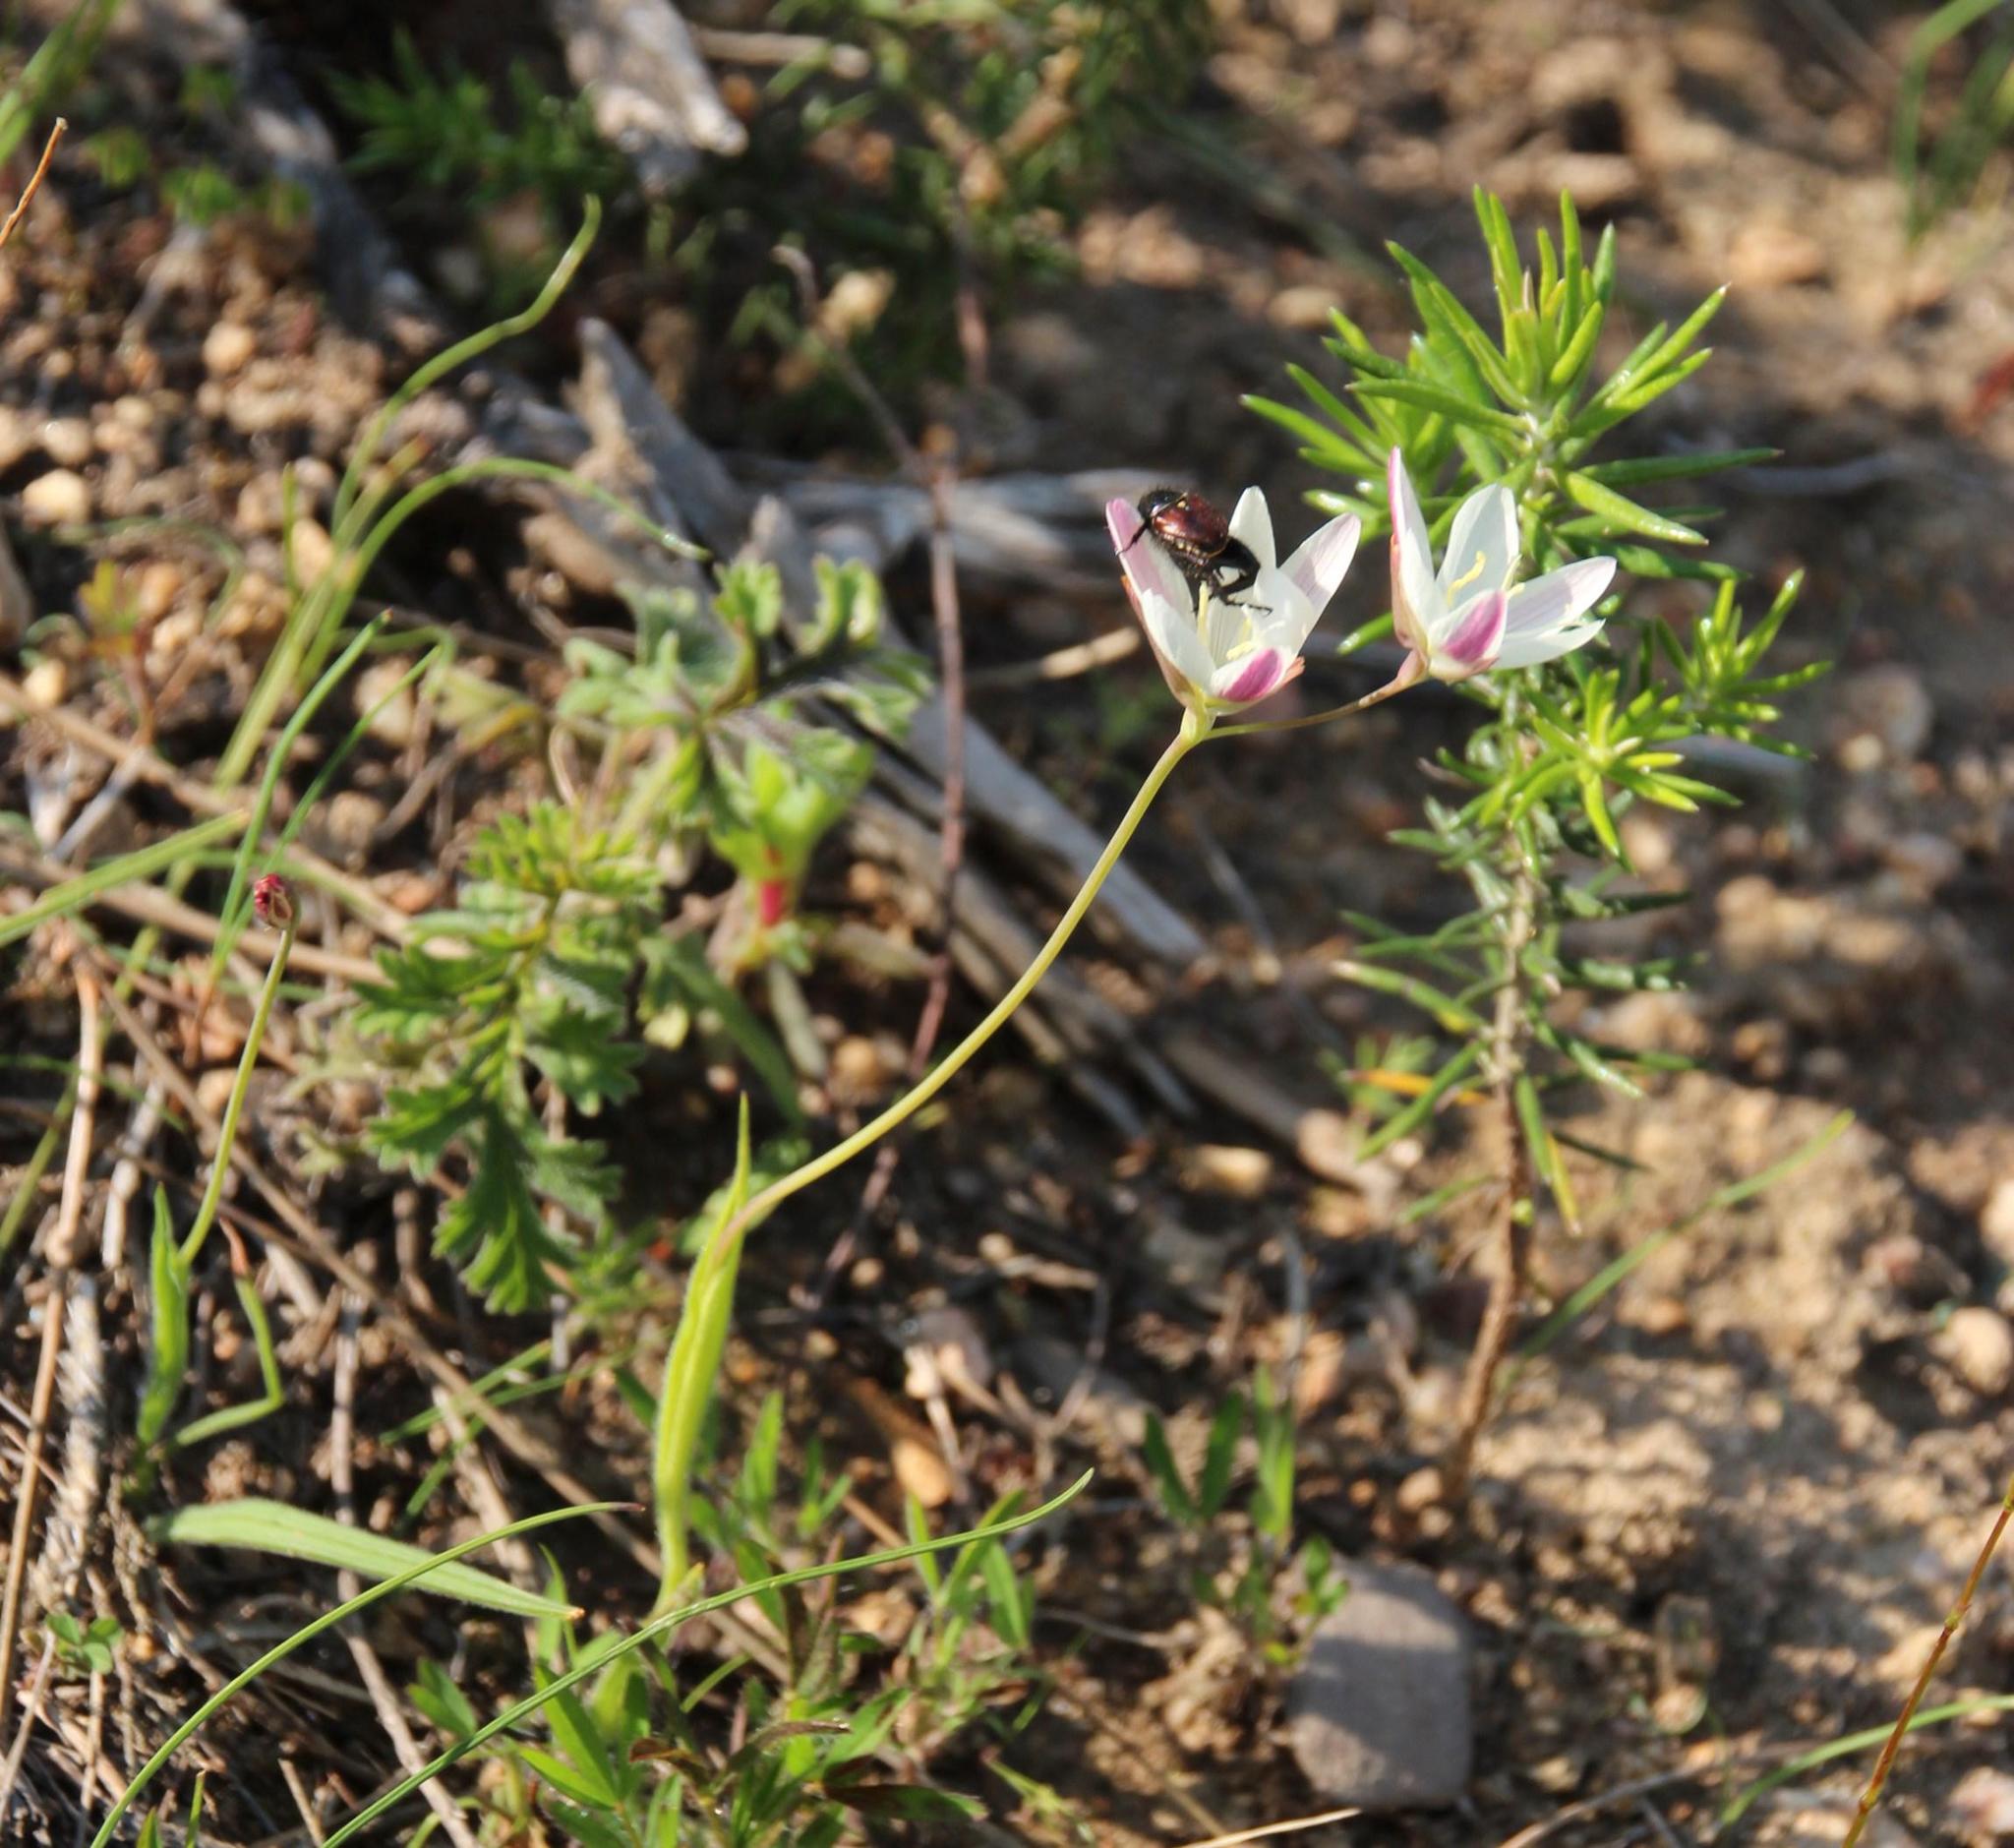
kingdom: Plantae
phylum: Tracheophyta
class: Liliopsida
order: Asparagales
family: Iridaceae
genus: Hesperantha
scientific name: Hesperantha falcata
